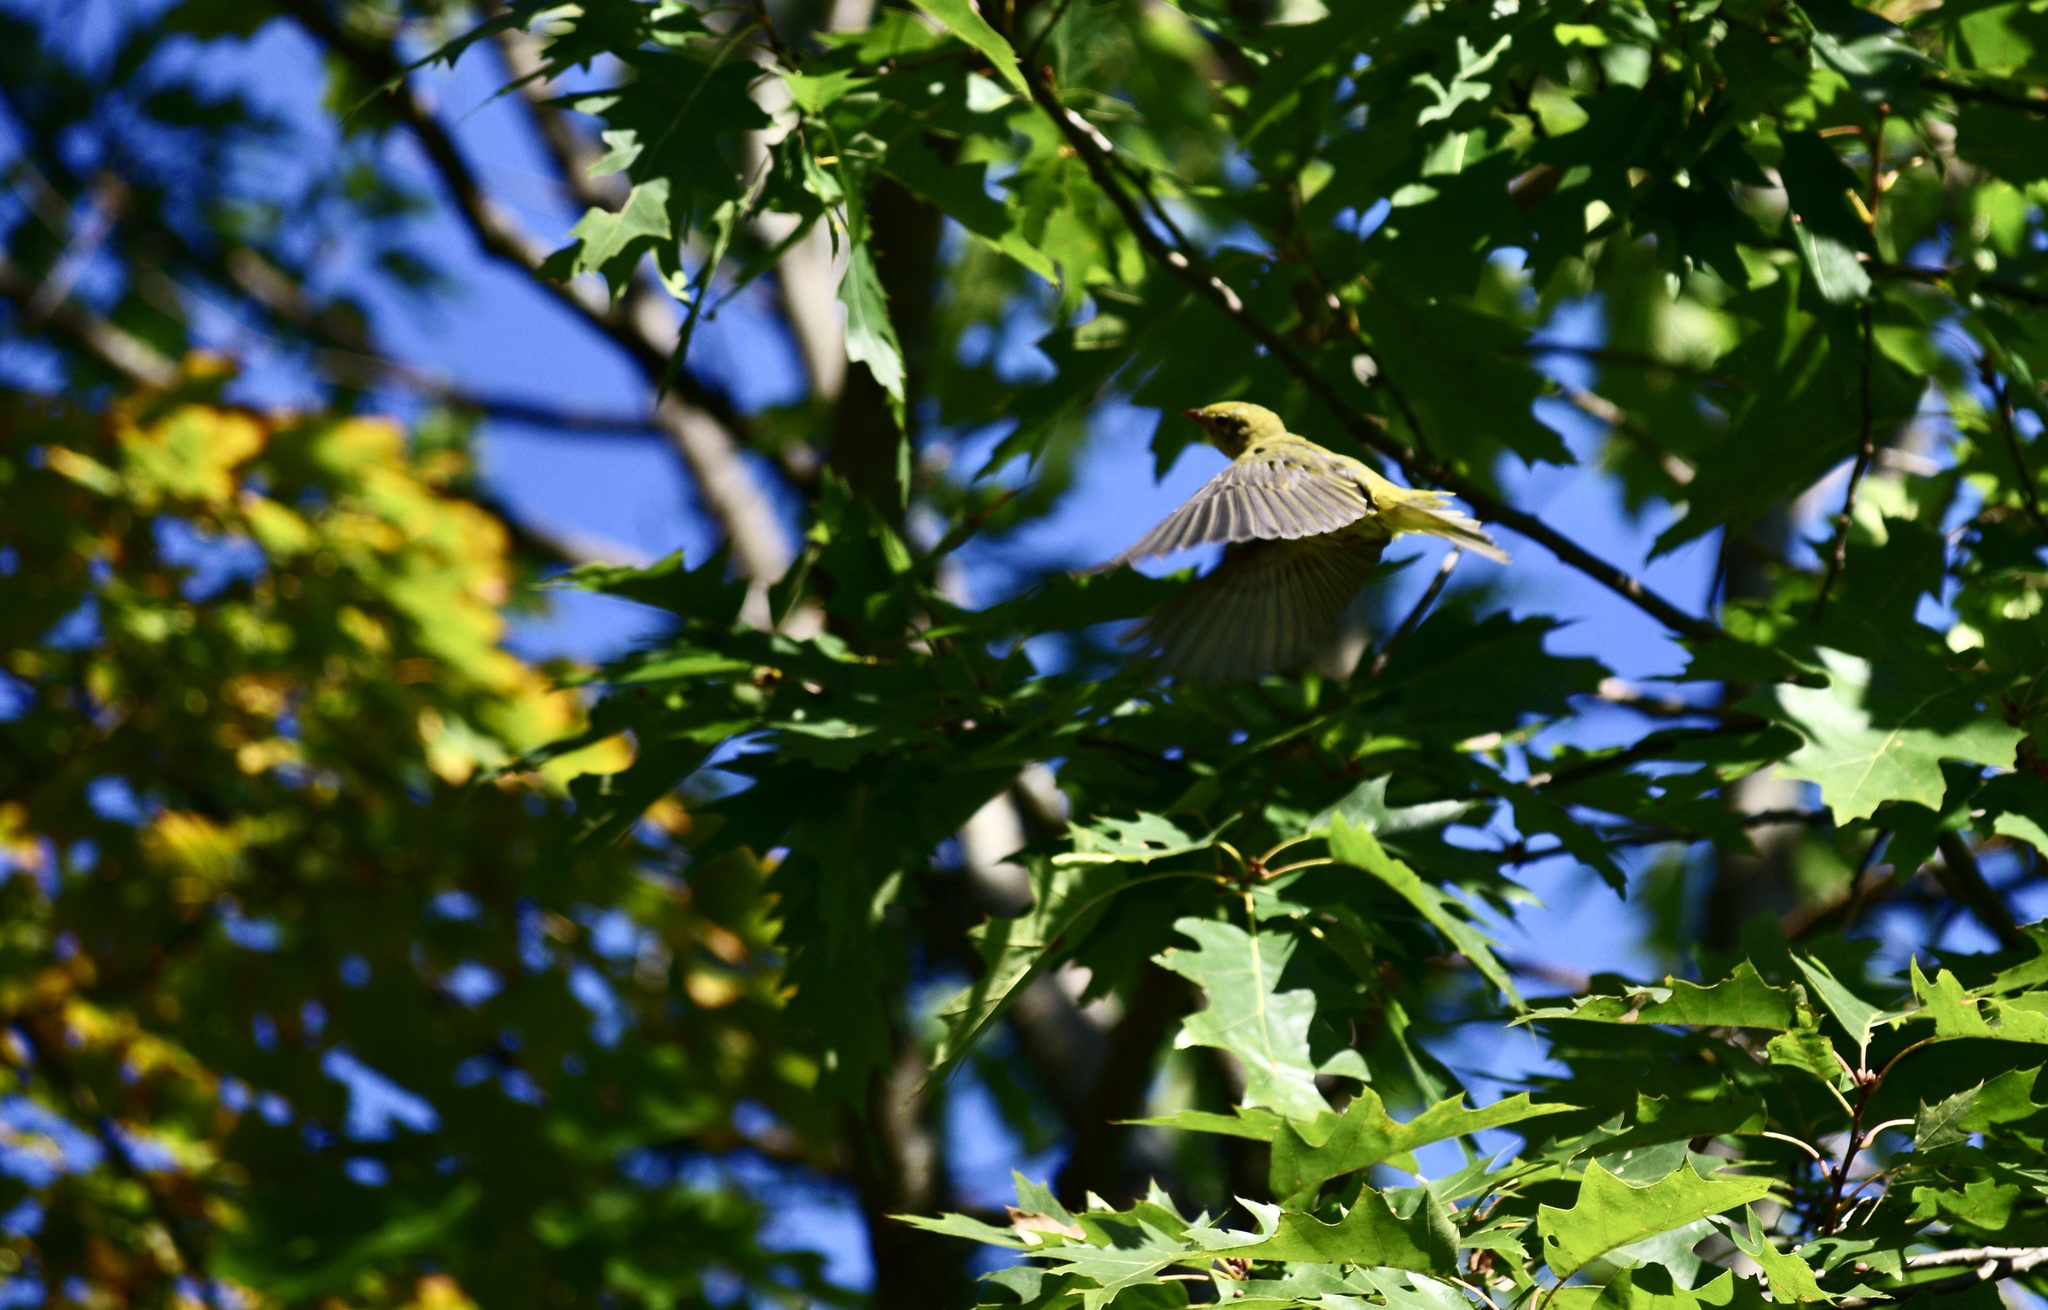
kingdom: Animalia
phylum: Chordata
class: Aves
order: Passeriformes
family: Cardinalidae
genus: Piranga
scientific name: Piranga olivacea
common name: Scarlet tanager
